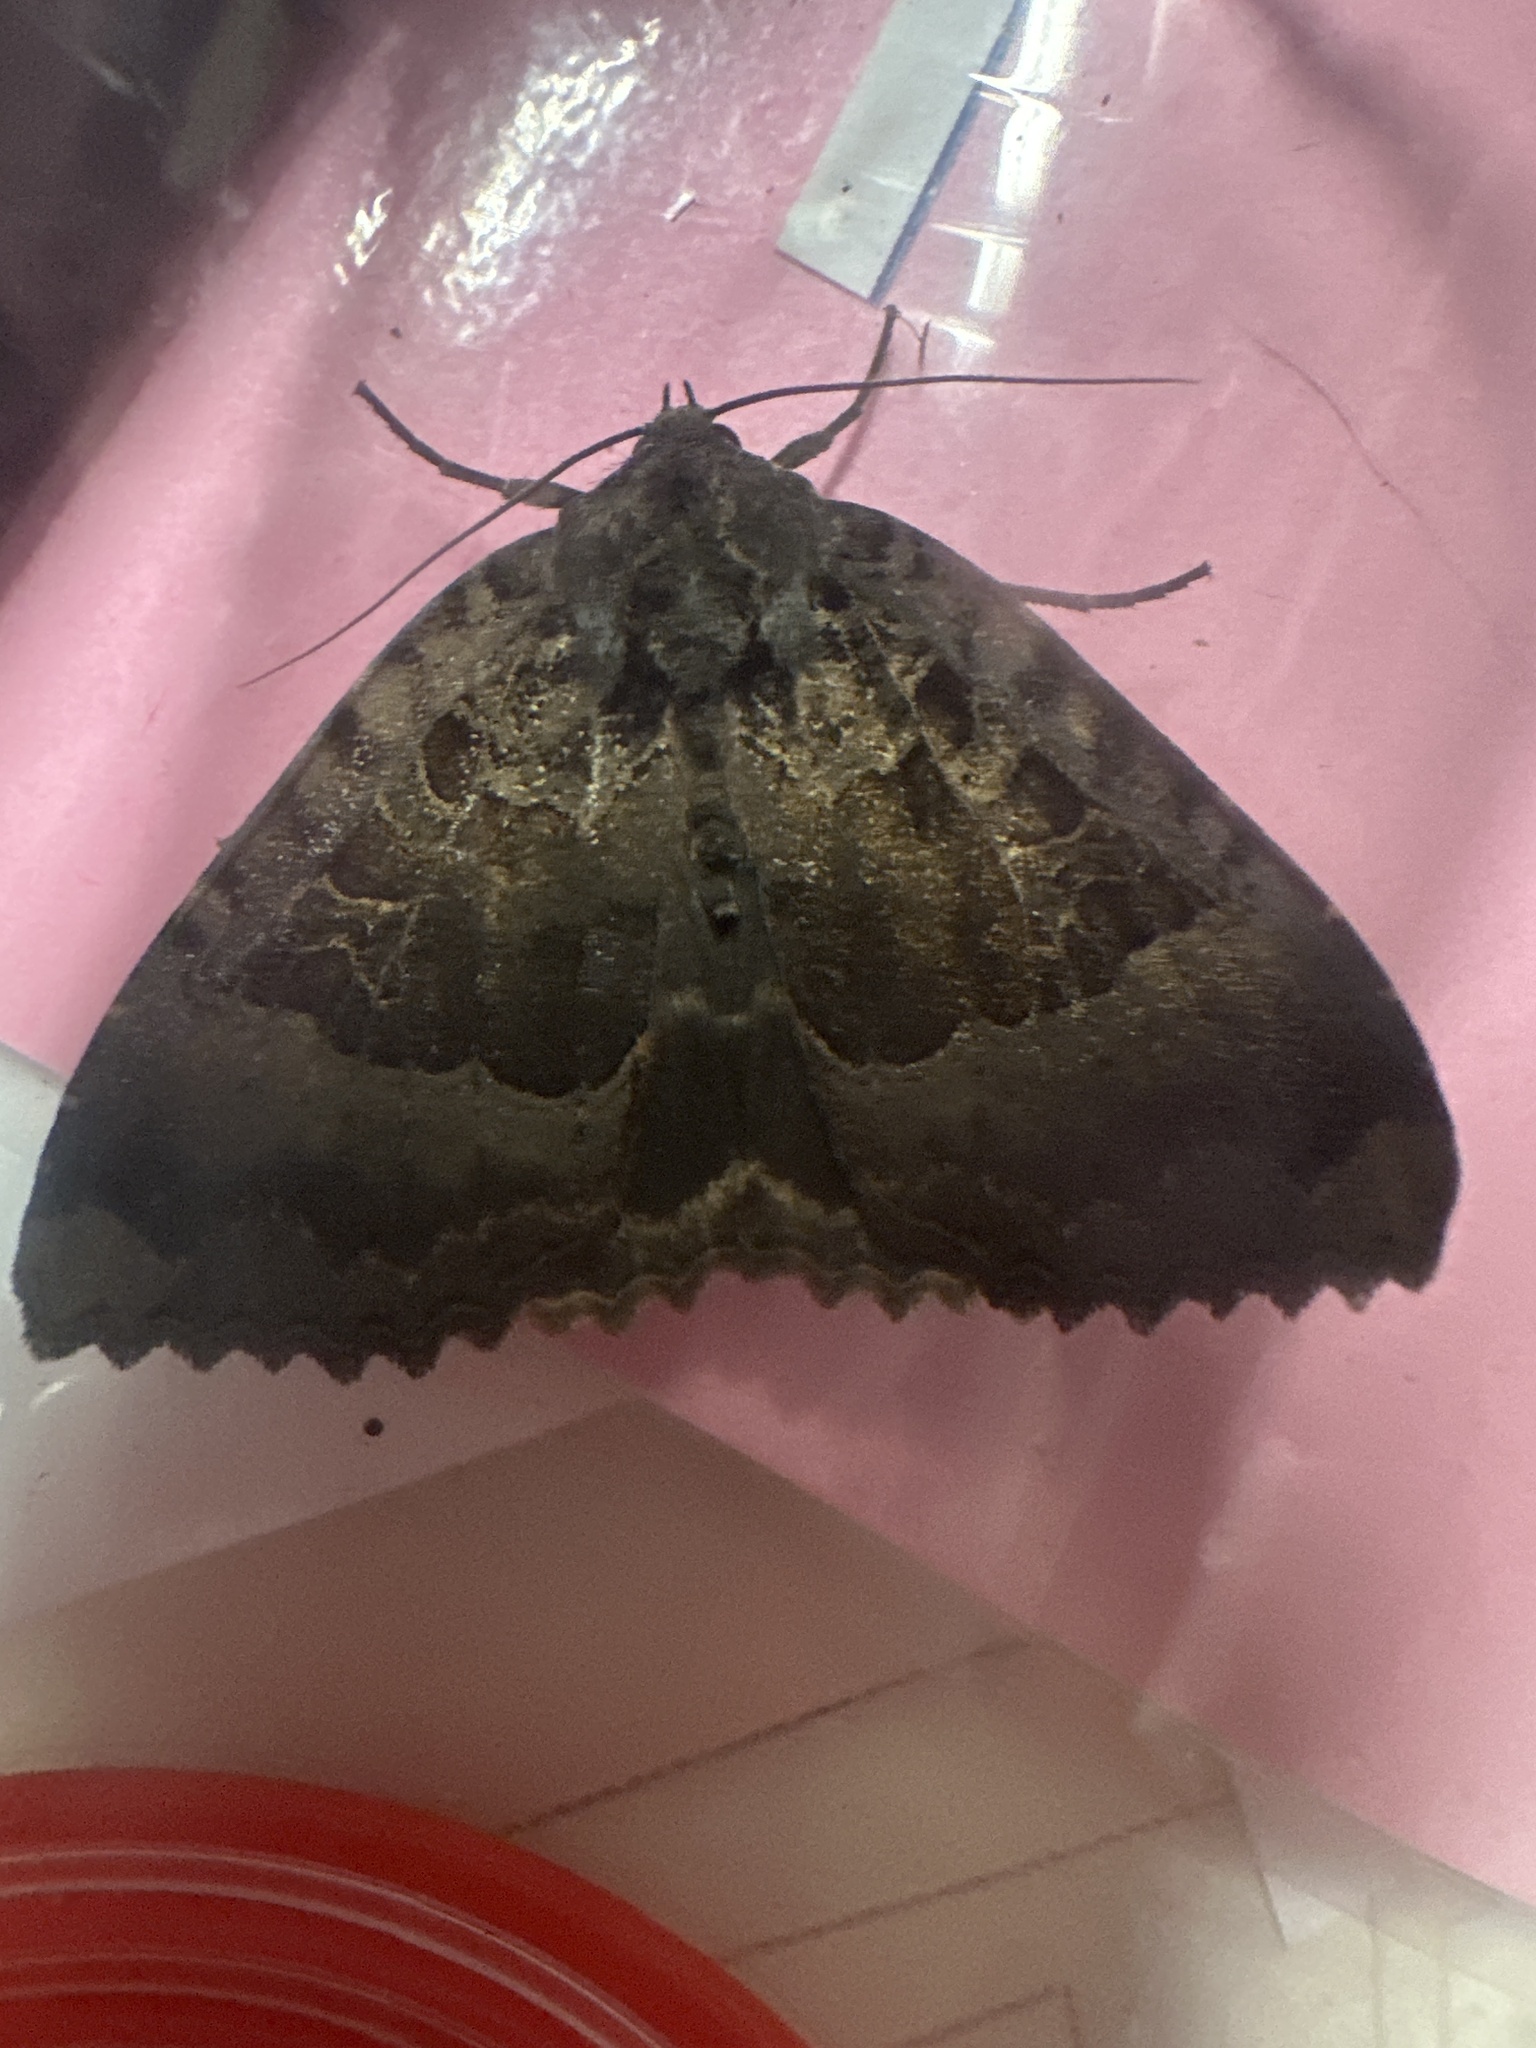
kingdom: Animalia
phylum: Arthropoda
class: Insecta
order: Lepidoptera
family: Noctuidae
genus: Mormo
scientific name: Mormo maura
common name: Old lady
